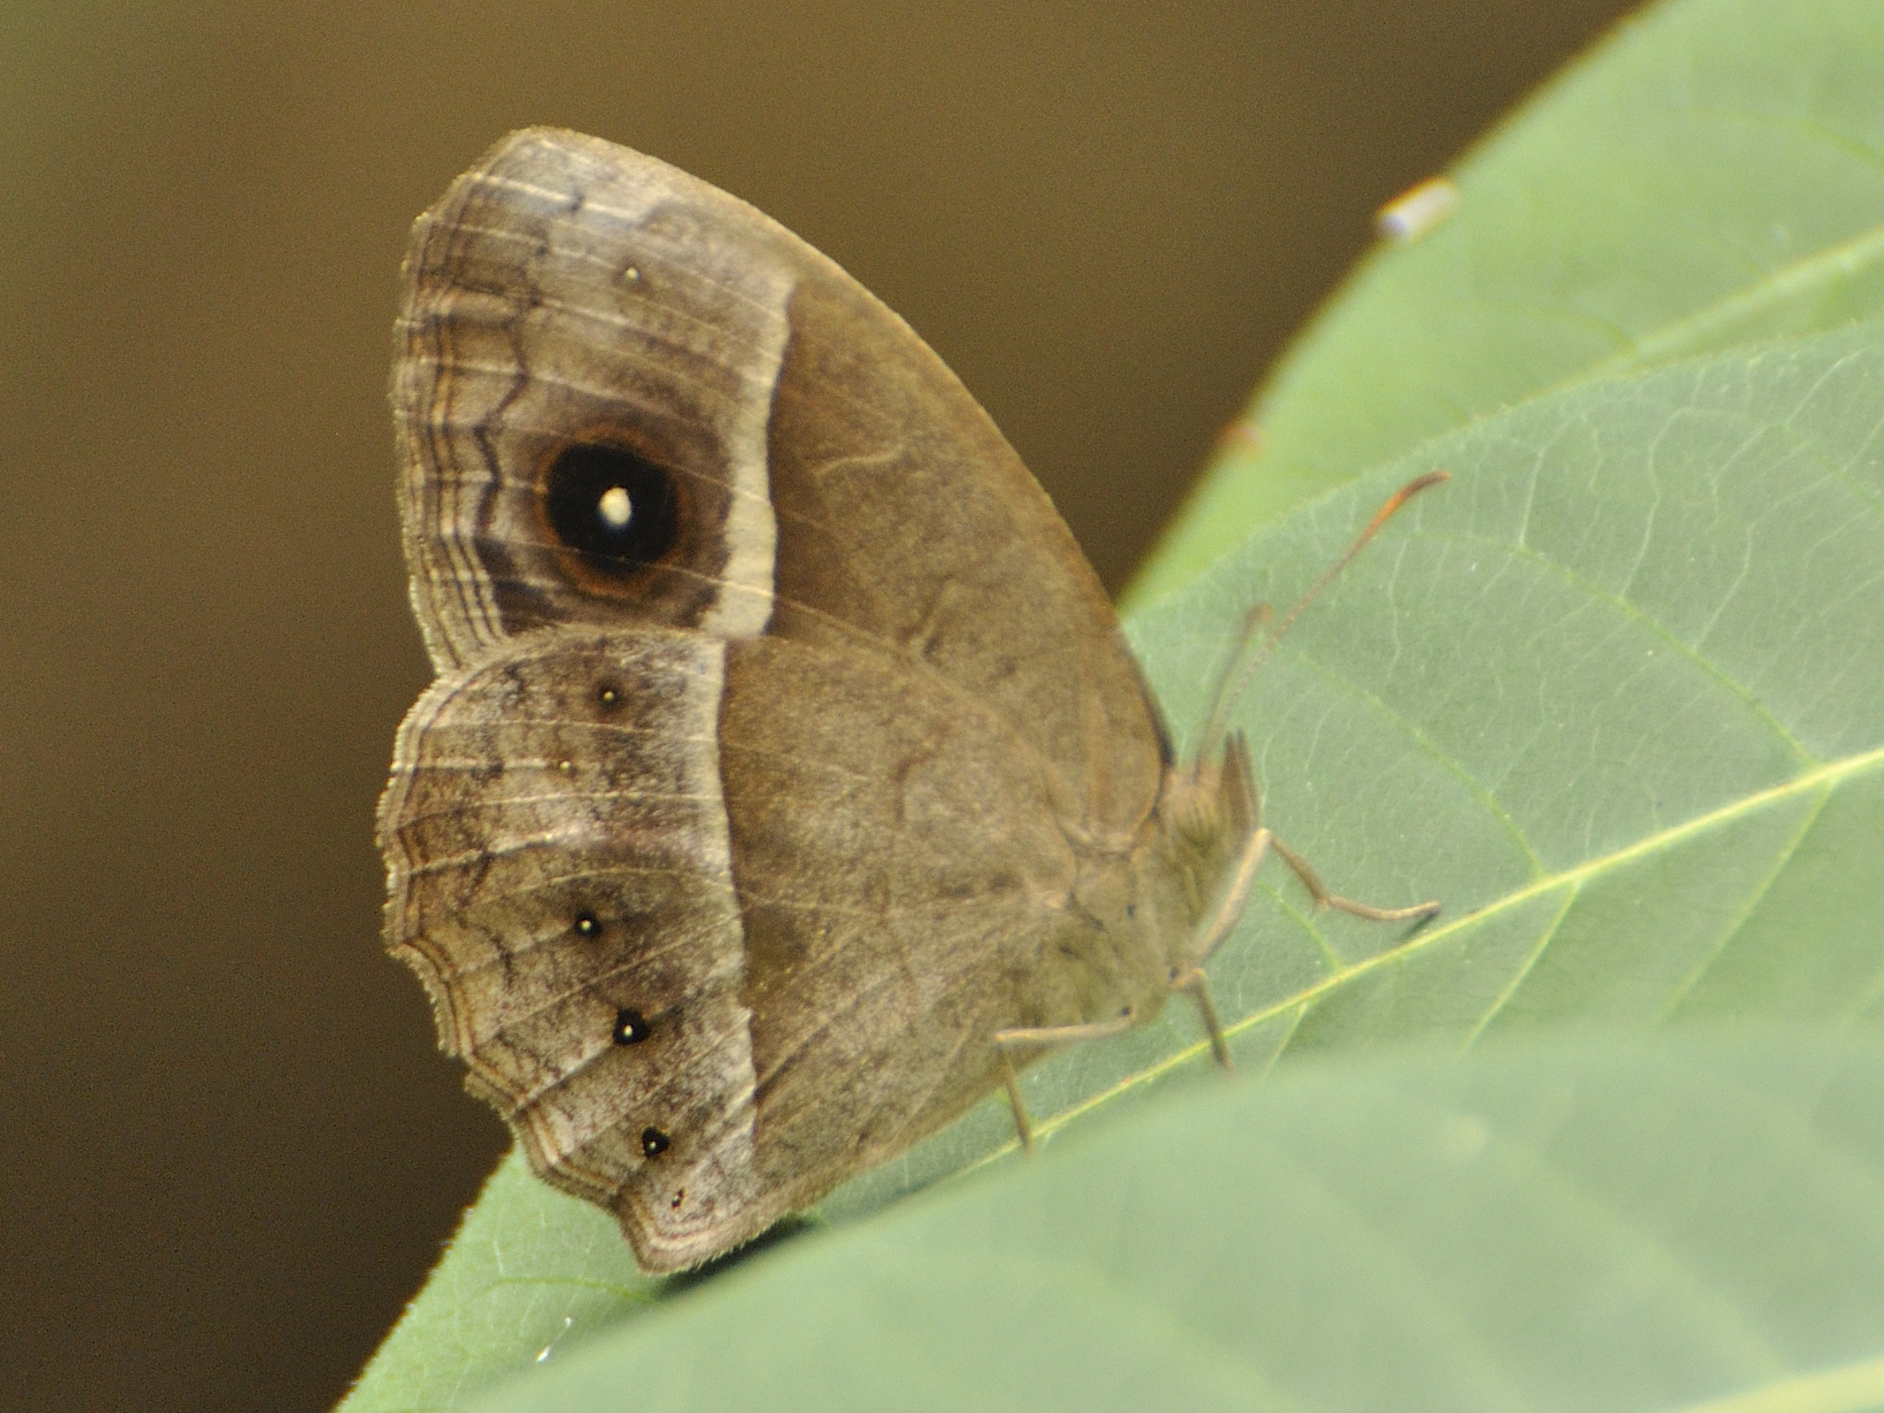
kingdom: Animalia
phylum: Arthropoda
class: Insecta
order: Lepidoptera
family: Nymphalidae
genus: Mycalesis
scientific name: Mycalesis rhacotis
